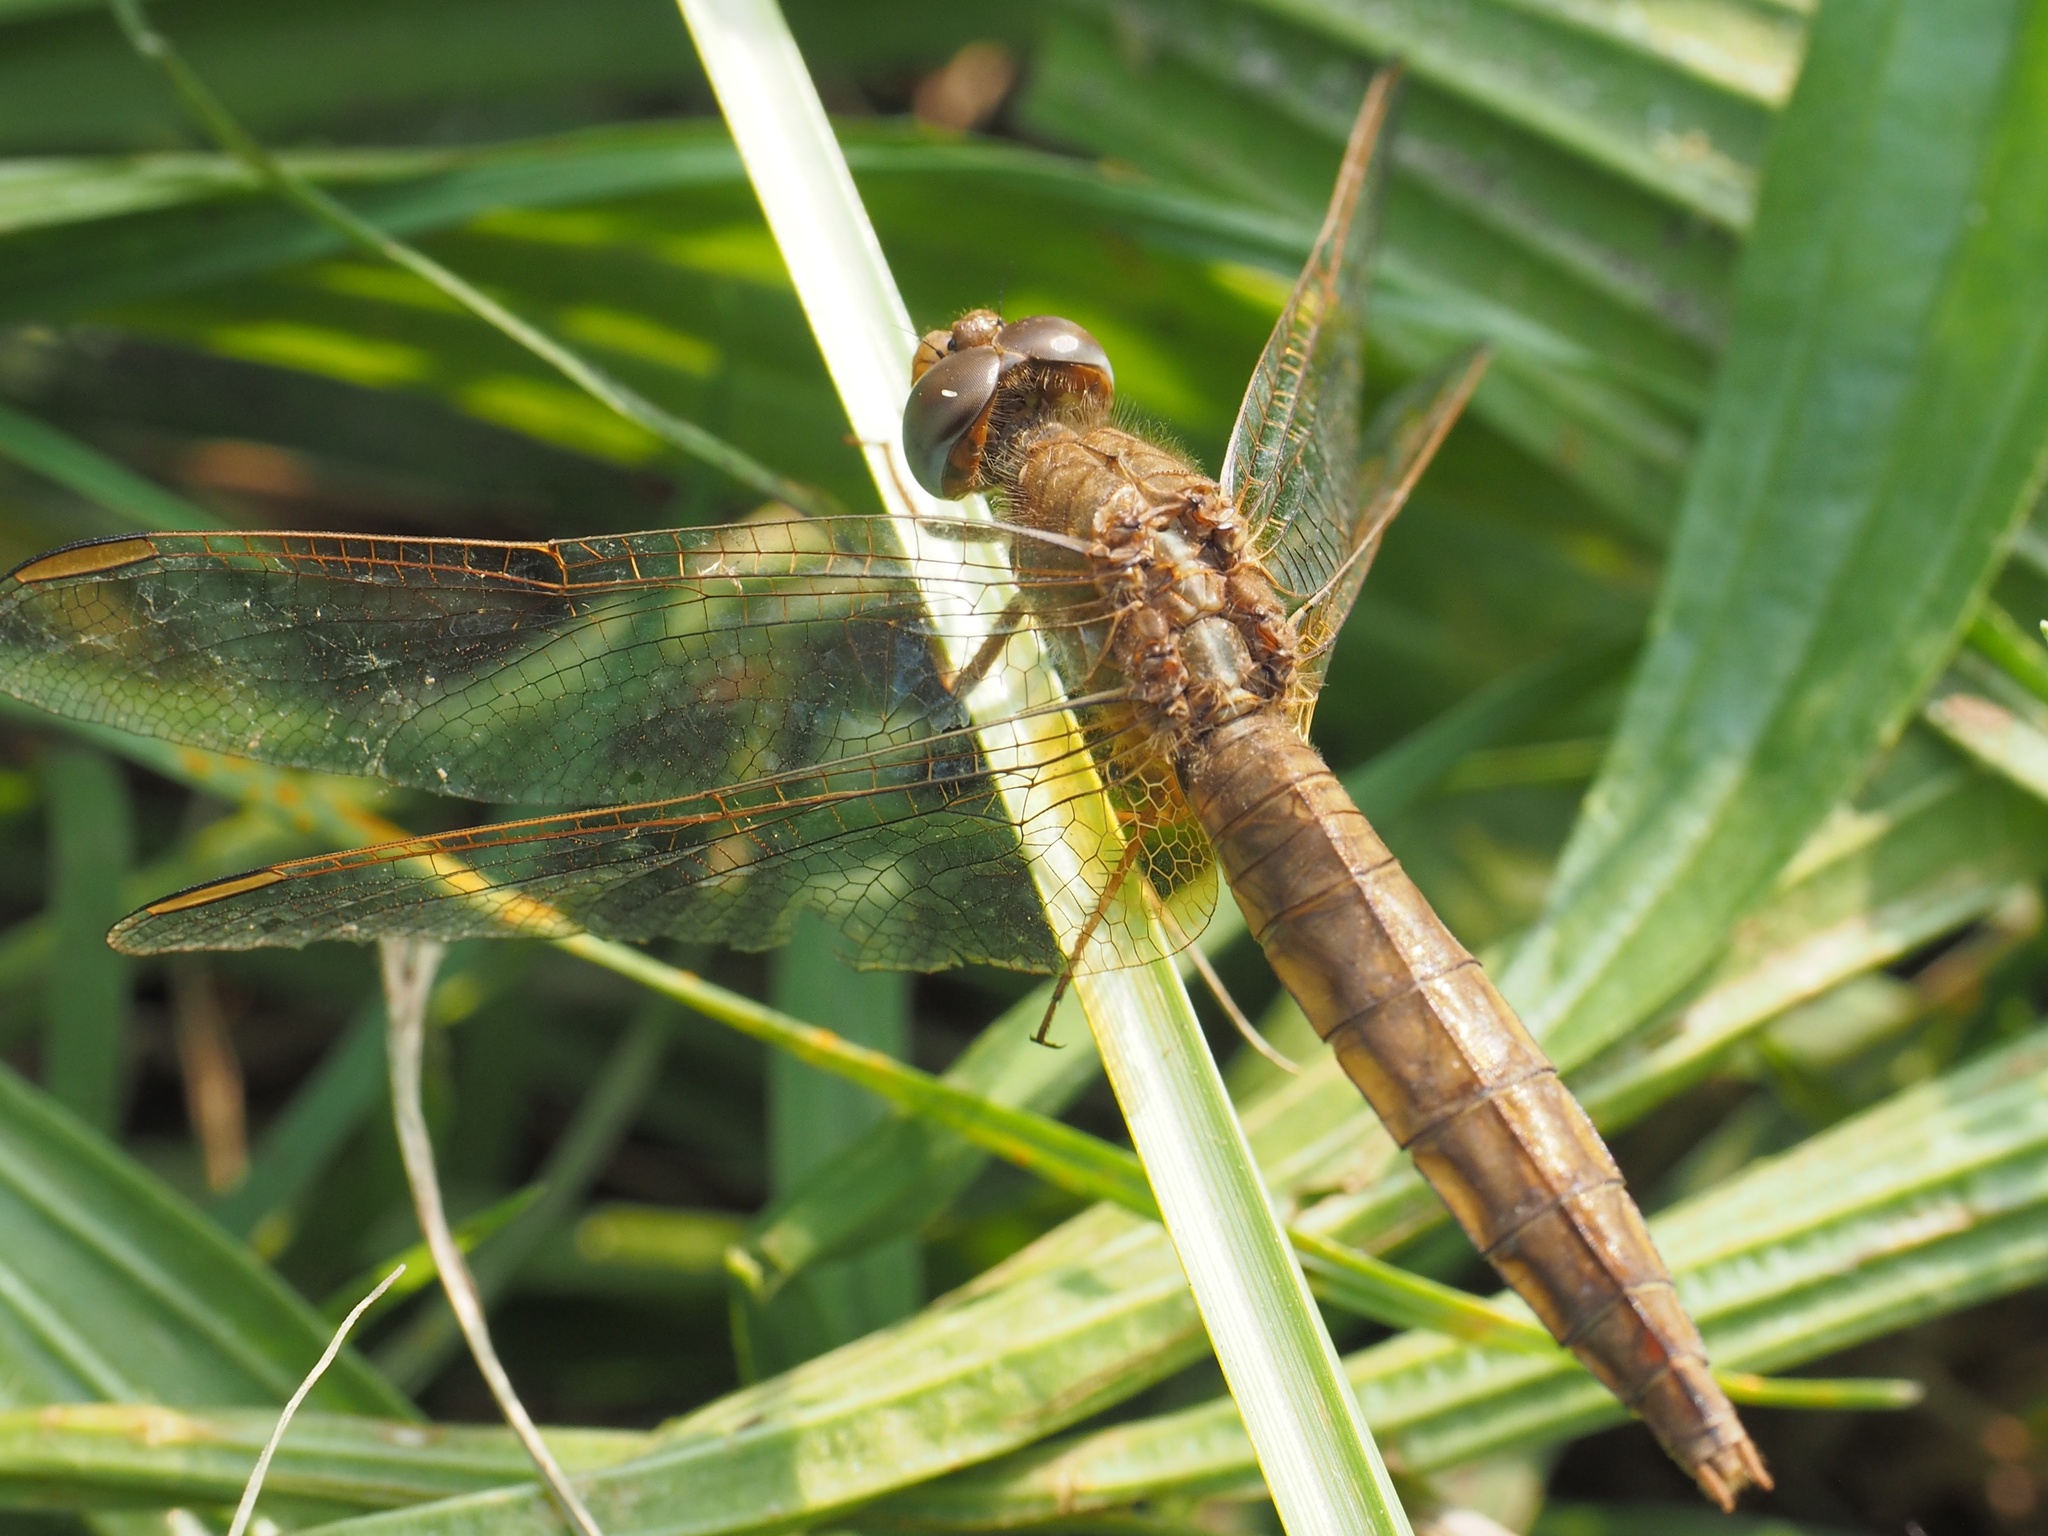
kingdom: Animalia
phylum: Arthropoda
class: Insecta
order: Odonata
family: Libellulidae
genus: Crocothemis
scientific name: Crocothemis erythraea
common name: Scarlet dragonfly
